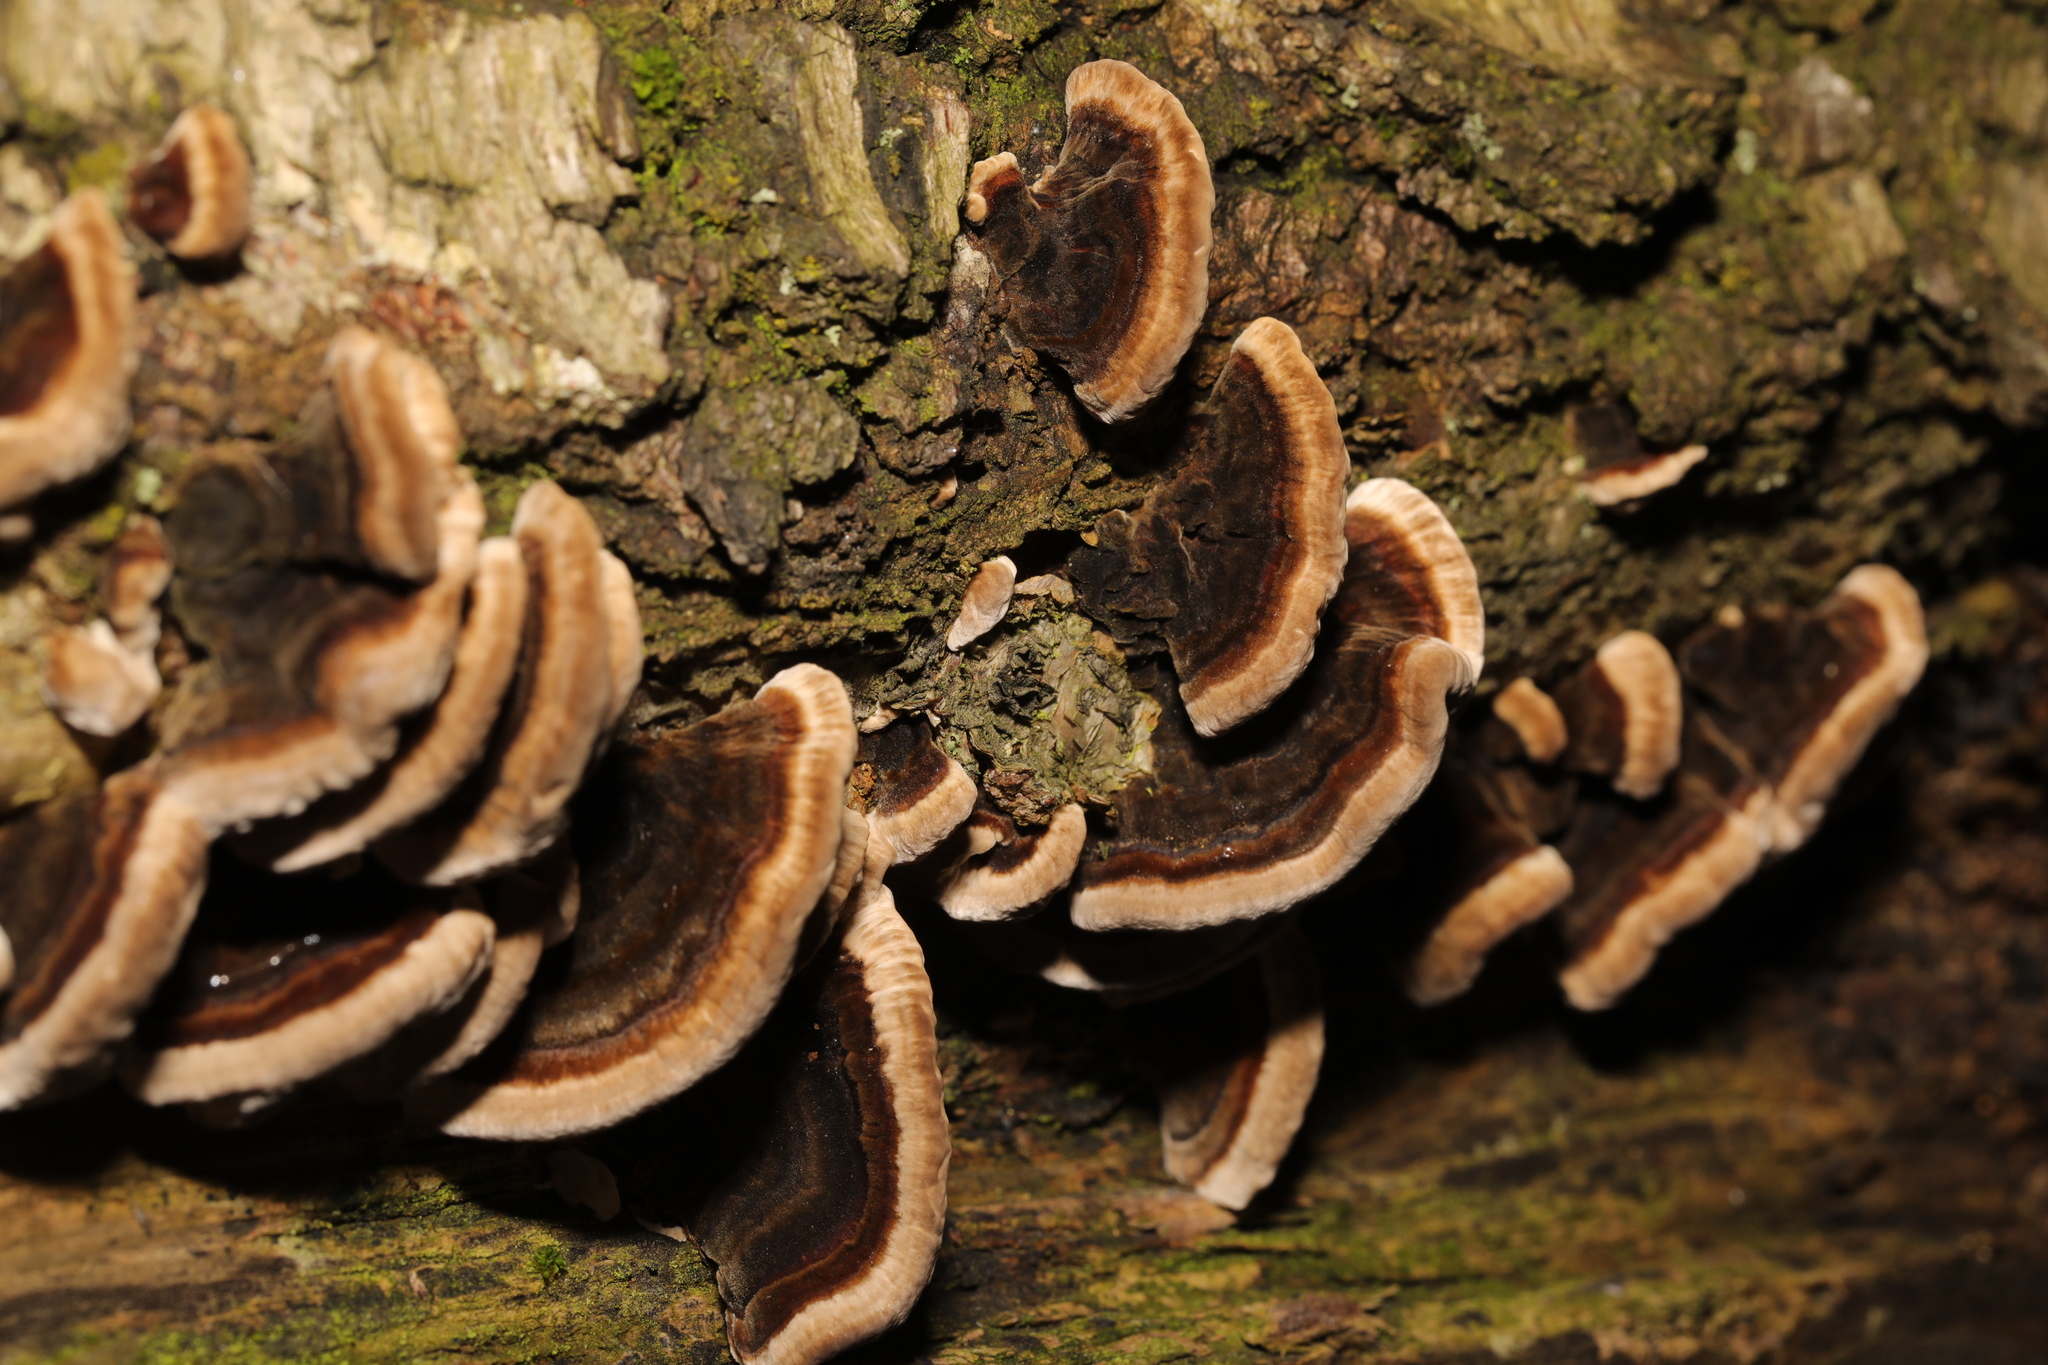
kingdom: Fungi
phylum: Basidiomycota
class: Agaricomycetes
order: Polyporales
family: Phanerochaetaceae
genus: Bjerkandera
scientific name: Bjerkandera adusta
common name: Smoky bracket
